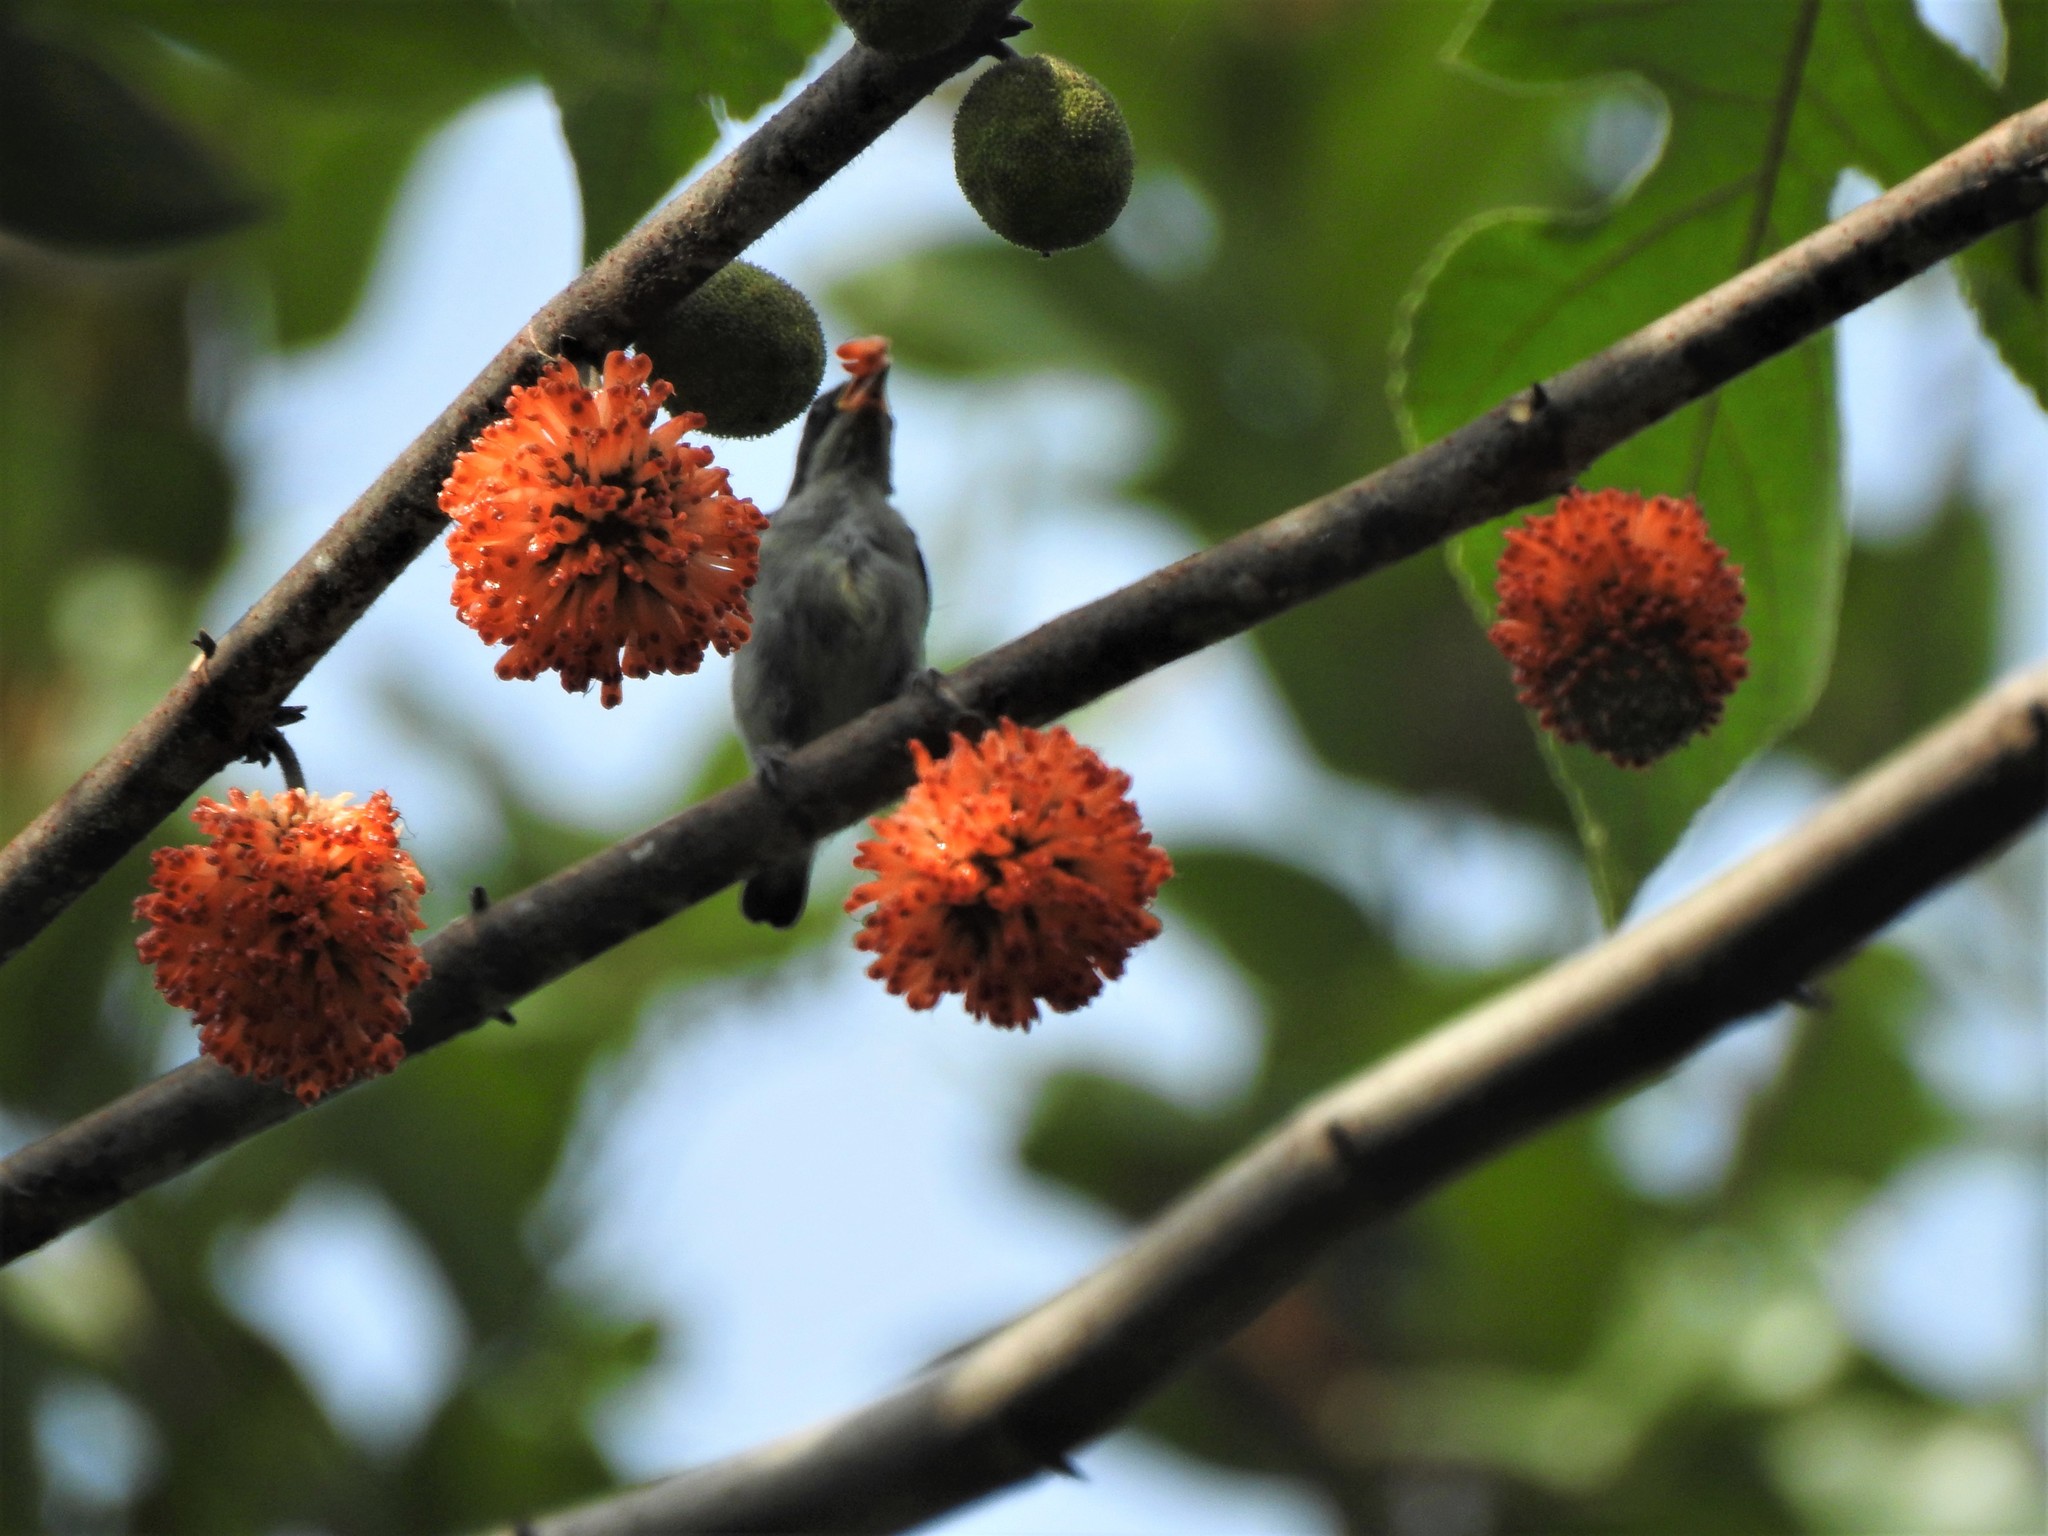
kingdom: Animalia
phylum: Chordata
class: Aves
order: Passeriformes
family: Dicaeidae
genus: Dicaeum
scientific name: Dicaeum australe
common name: Red-keeled flowerpecker
